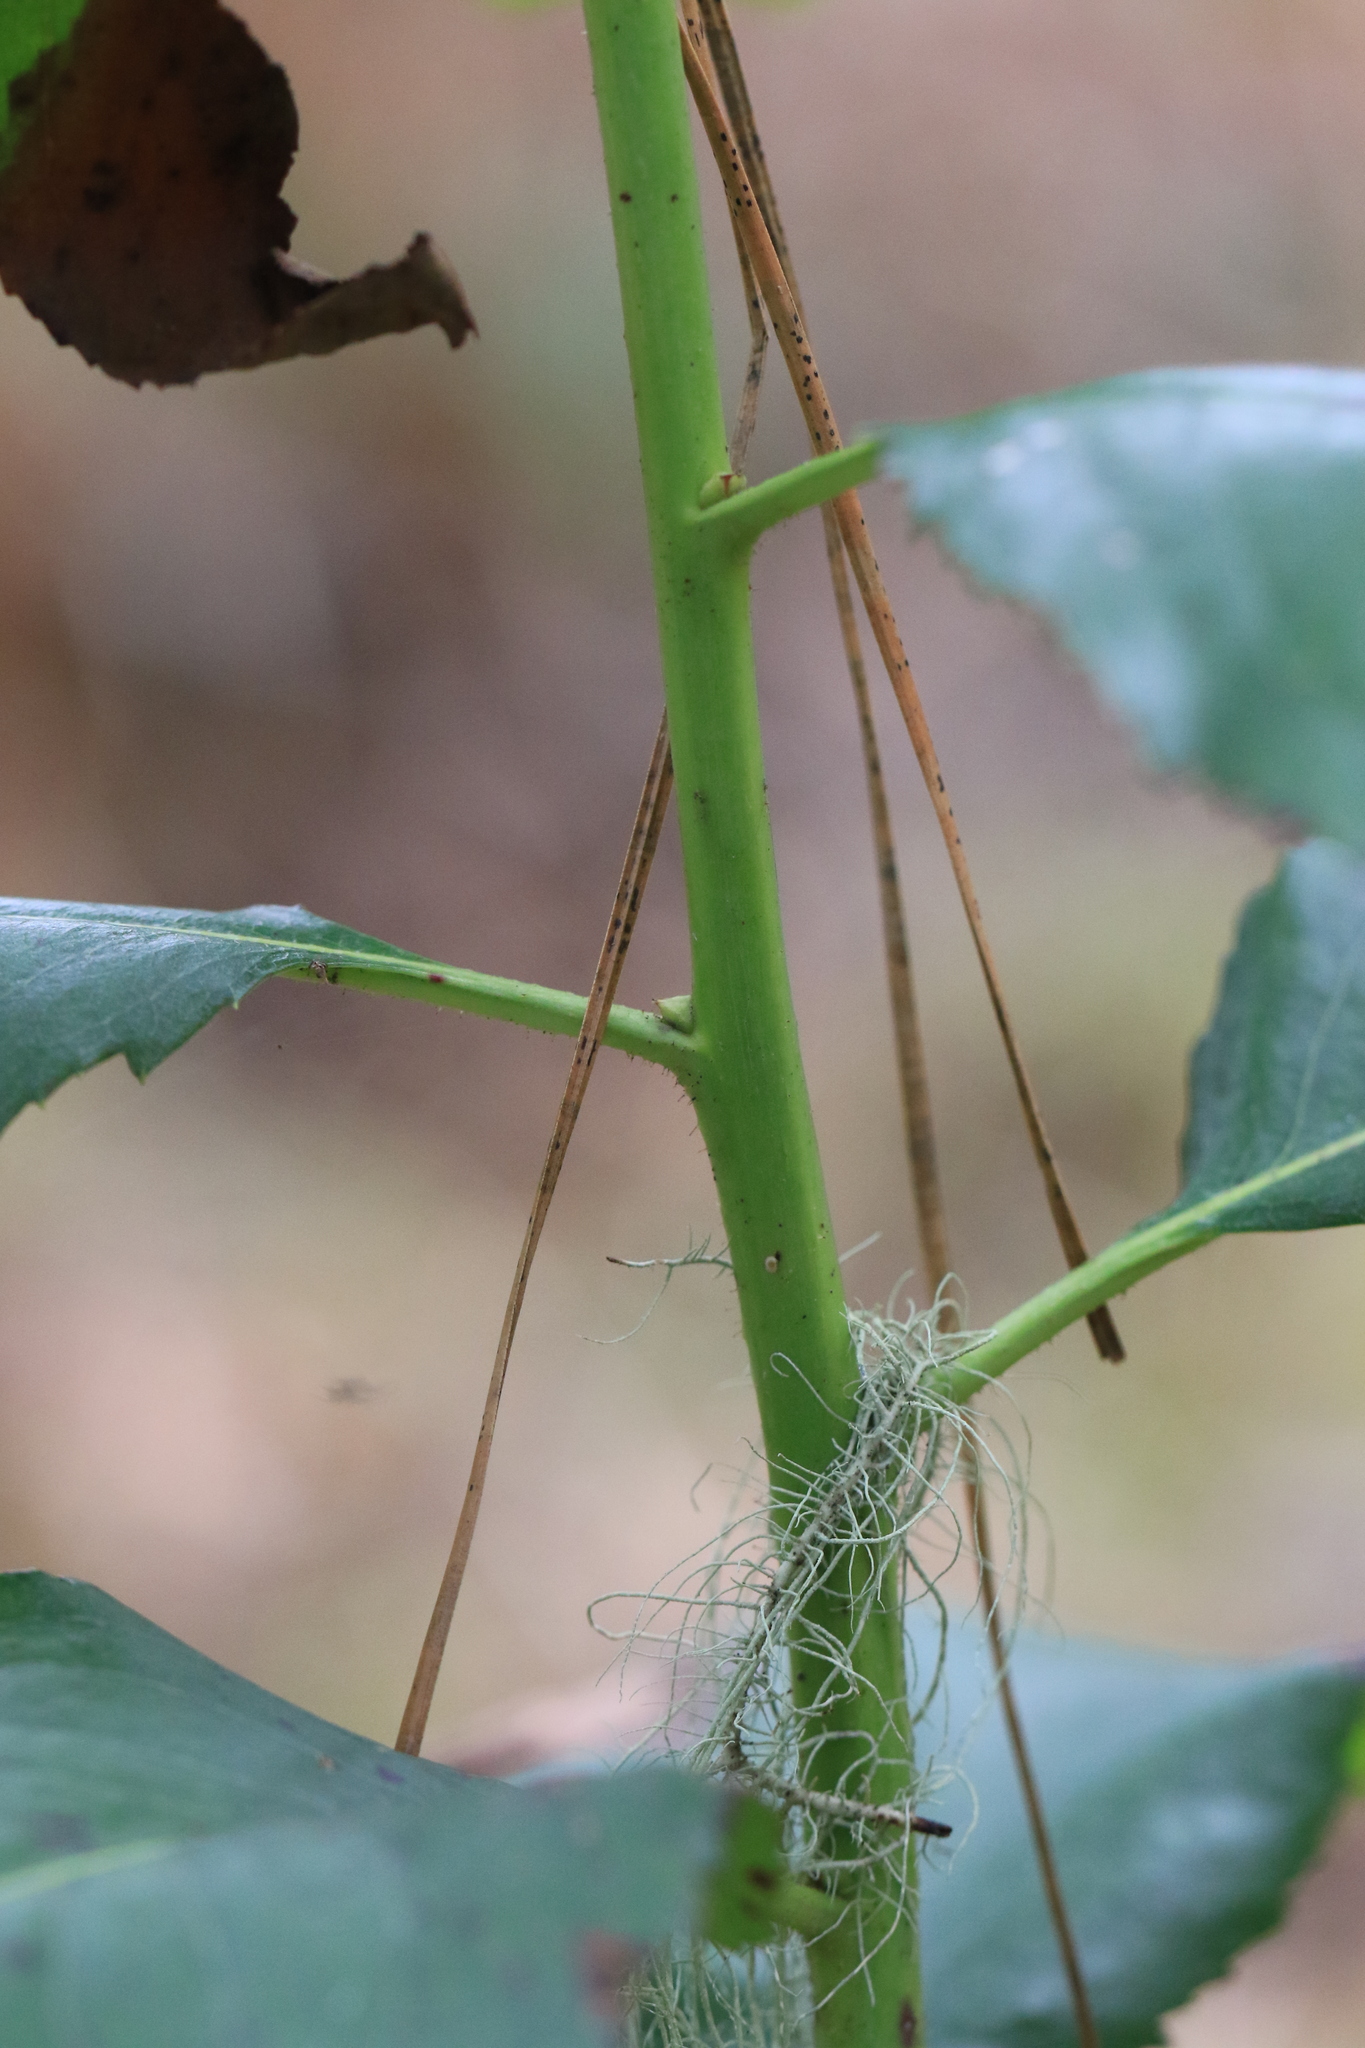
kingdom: Plantae
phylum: Tracheophyta
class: Magnoliopsida
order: Ericales
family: Ericaceae
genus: Arbutus
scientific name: Arbutus menziesii
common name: Pacific madrone
